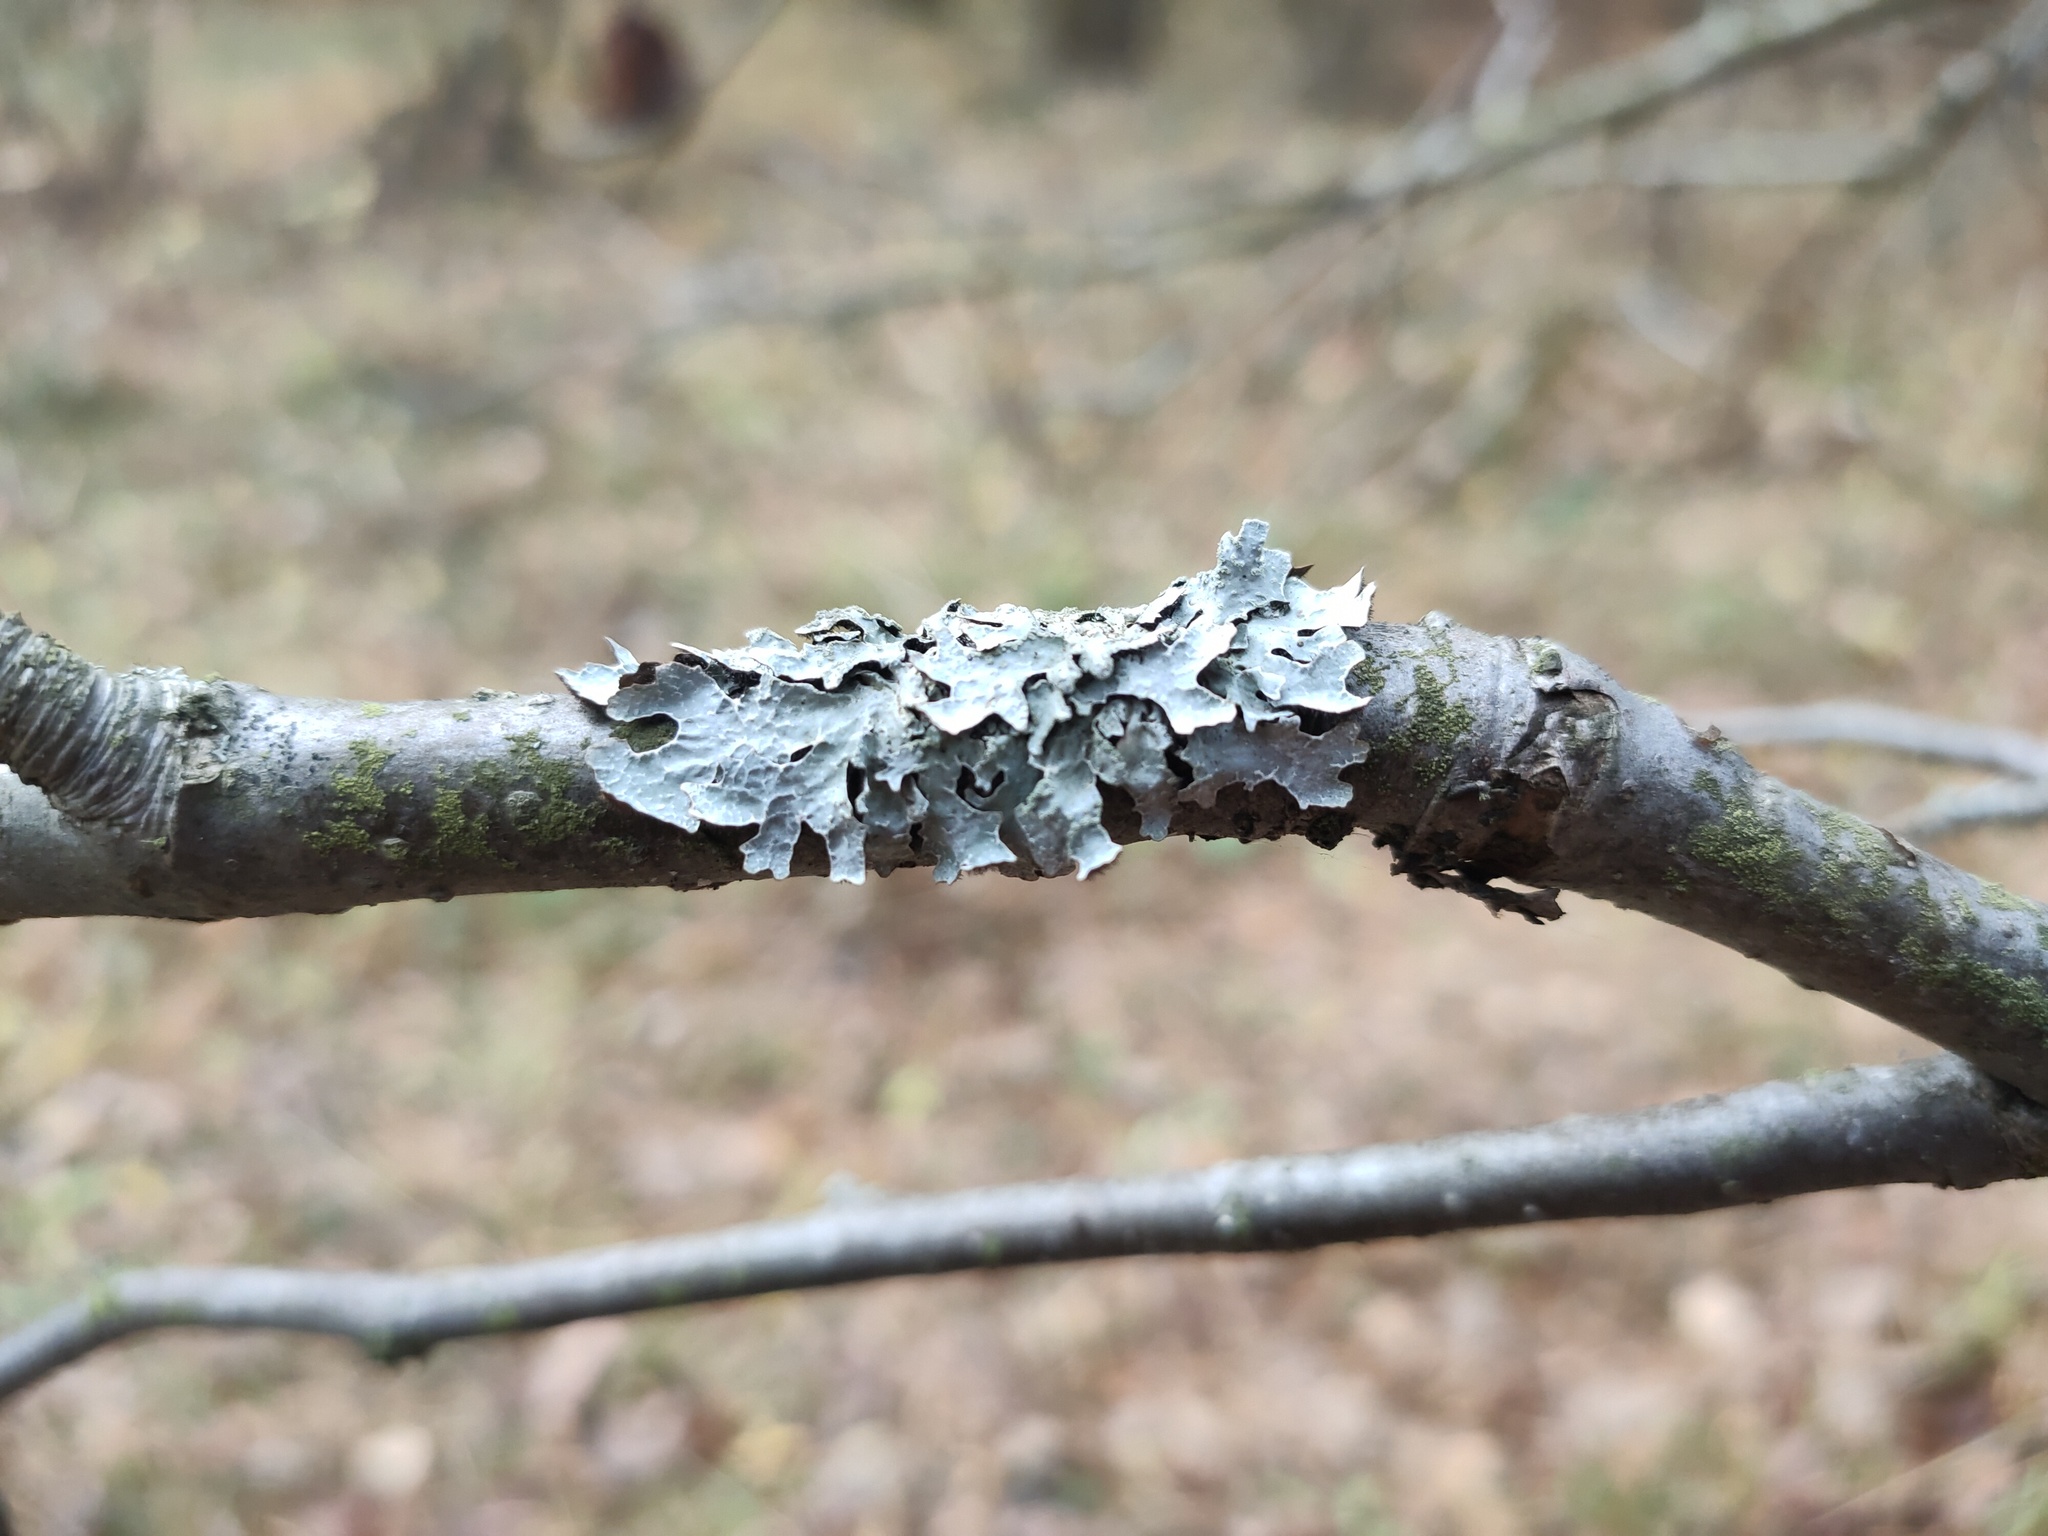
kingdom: Fungi
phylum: Ascomycota
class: Lecanoromycetes
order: Lecanorales
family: Parmeliaceae
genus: Parmelia
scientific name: Parmelia sulcata
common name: Netted shield lichen
